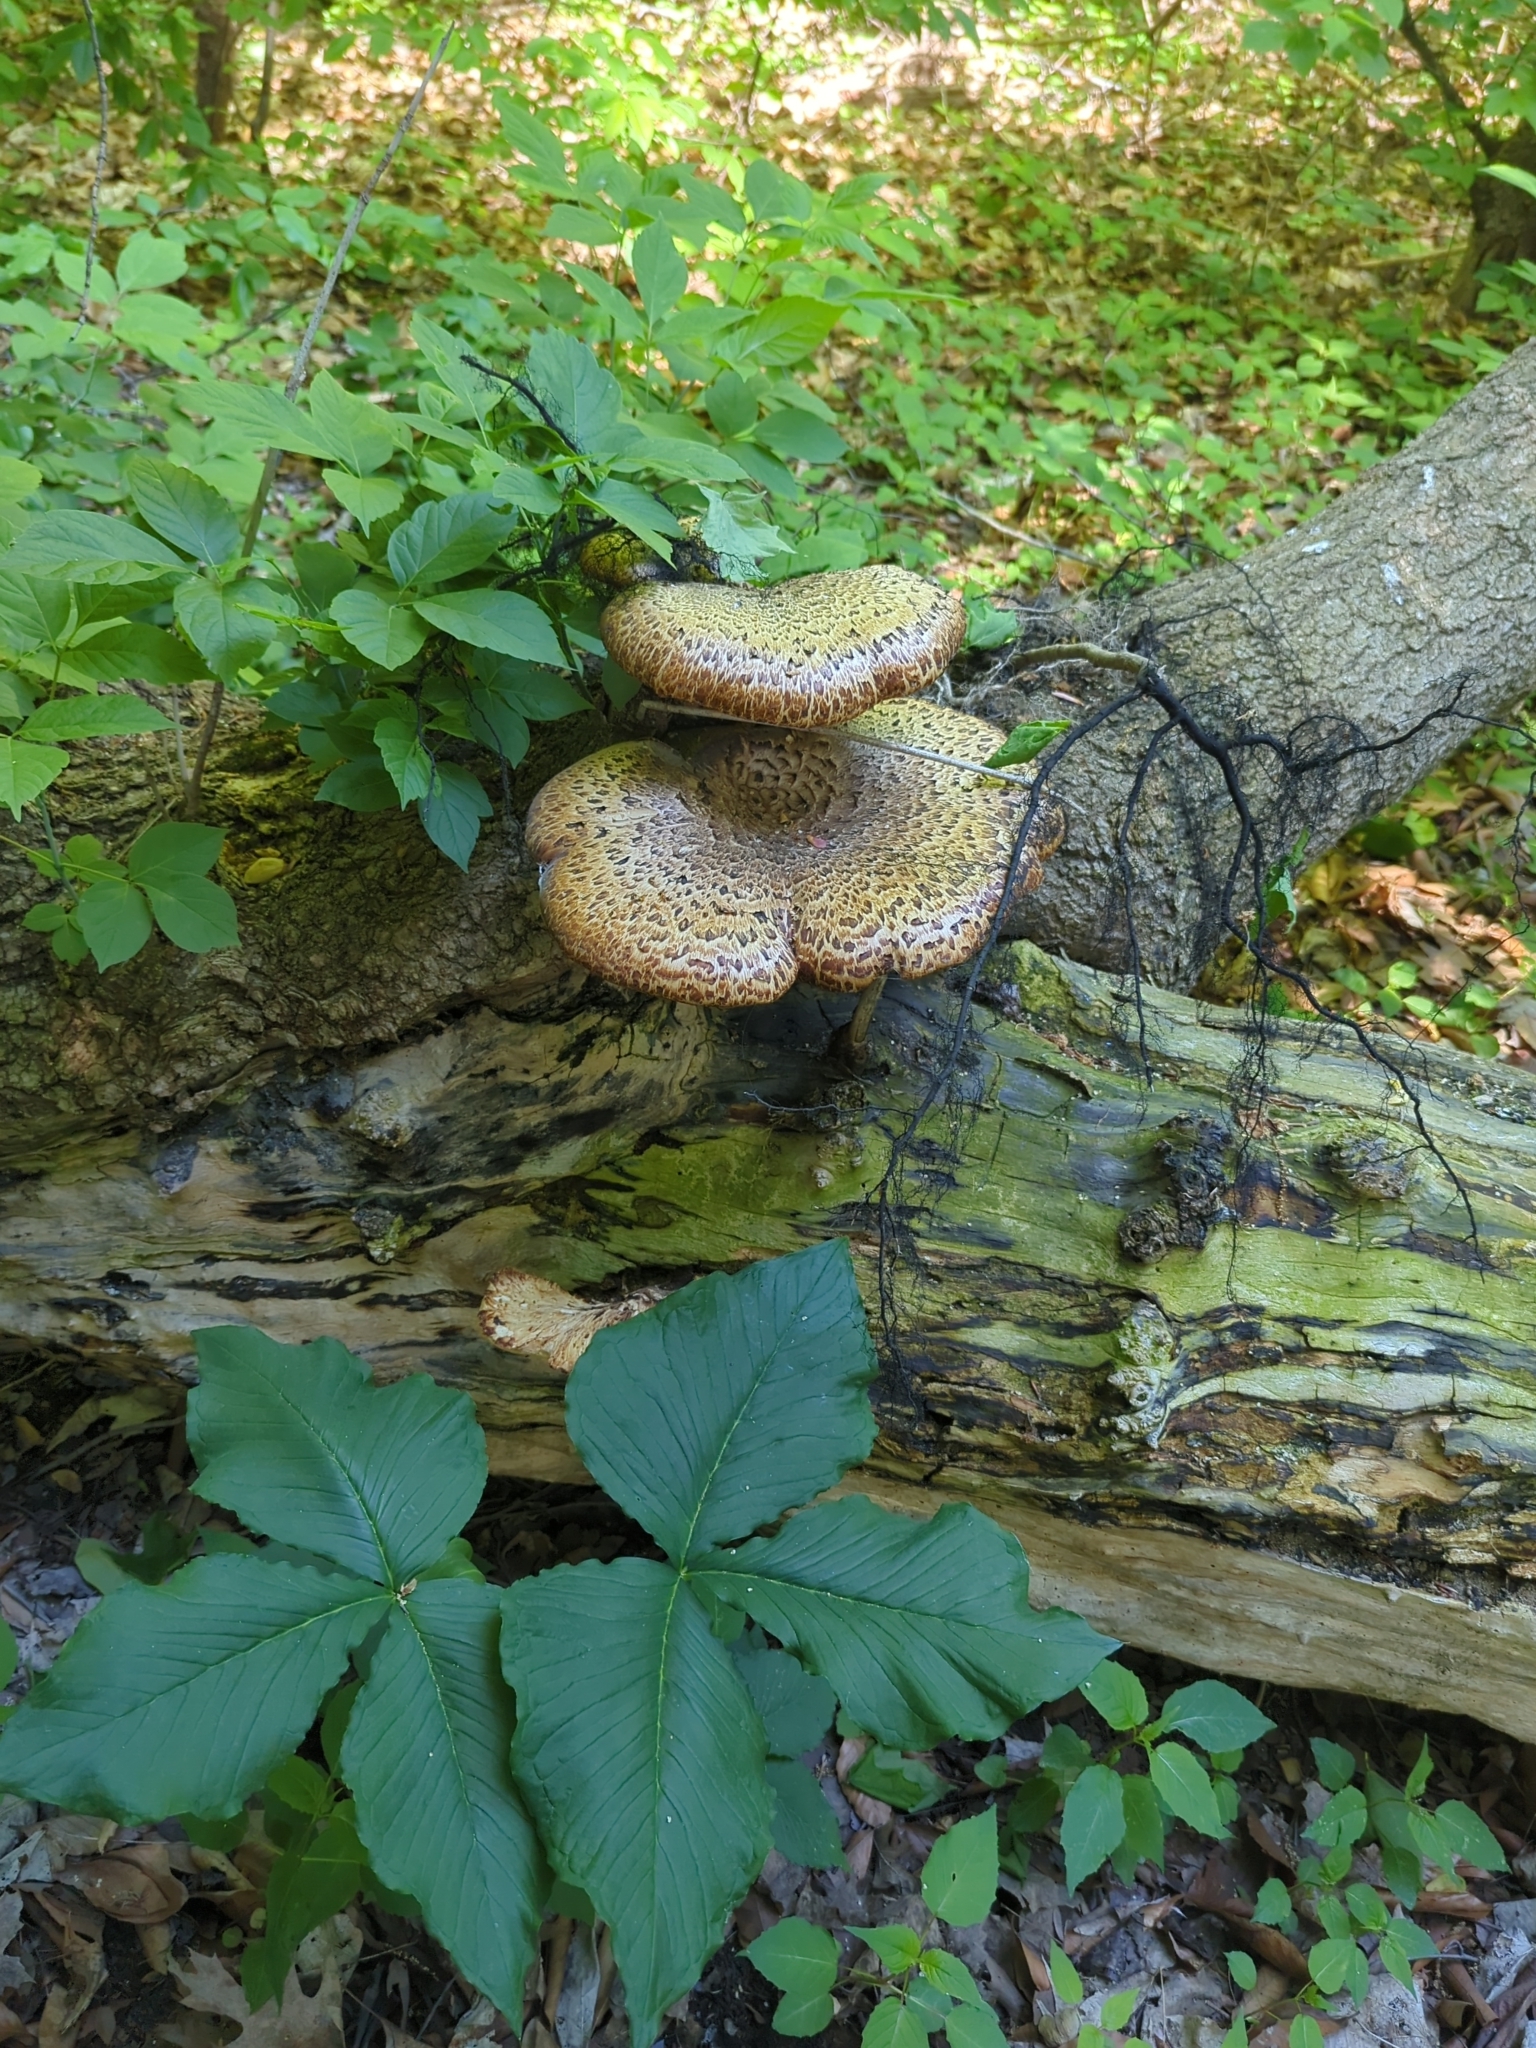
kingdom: Fungi
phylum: Basidiomycota
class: Agaricomycetes
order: Polyporales
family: Polyporaceae
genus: Cerioporus
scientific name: Cerioporus squamosus
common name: Dryad's saddle
